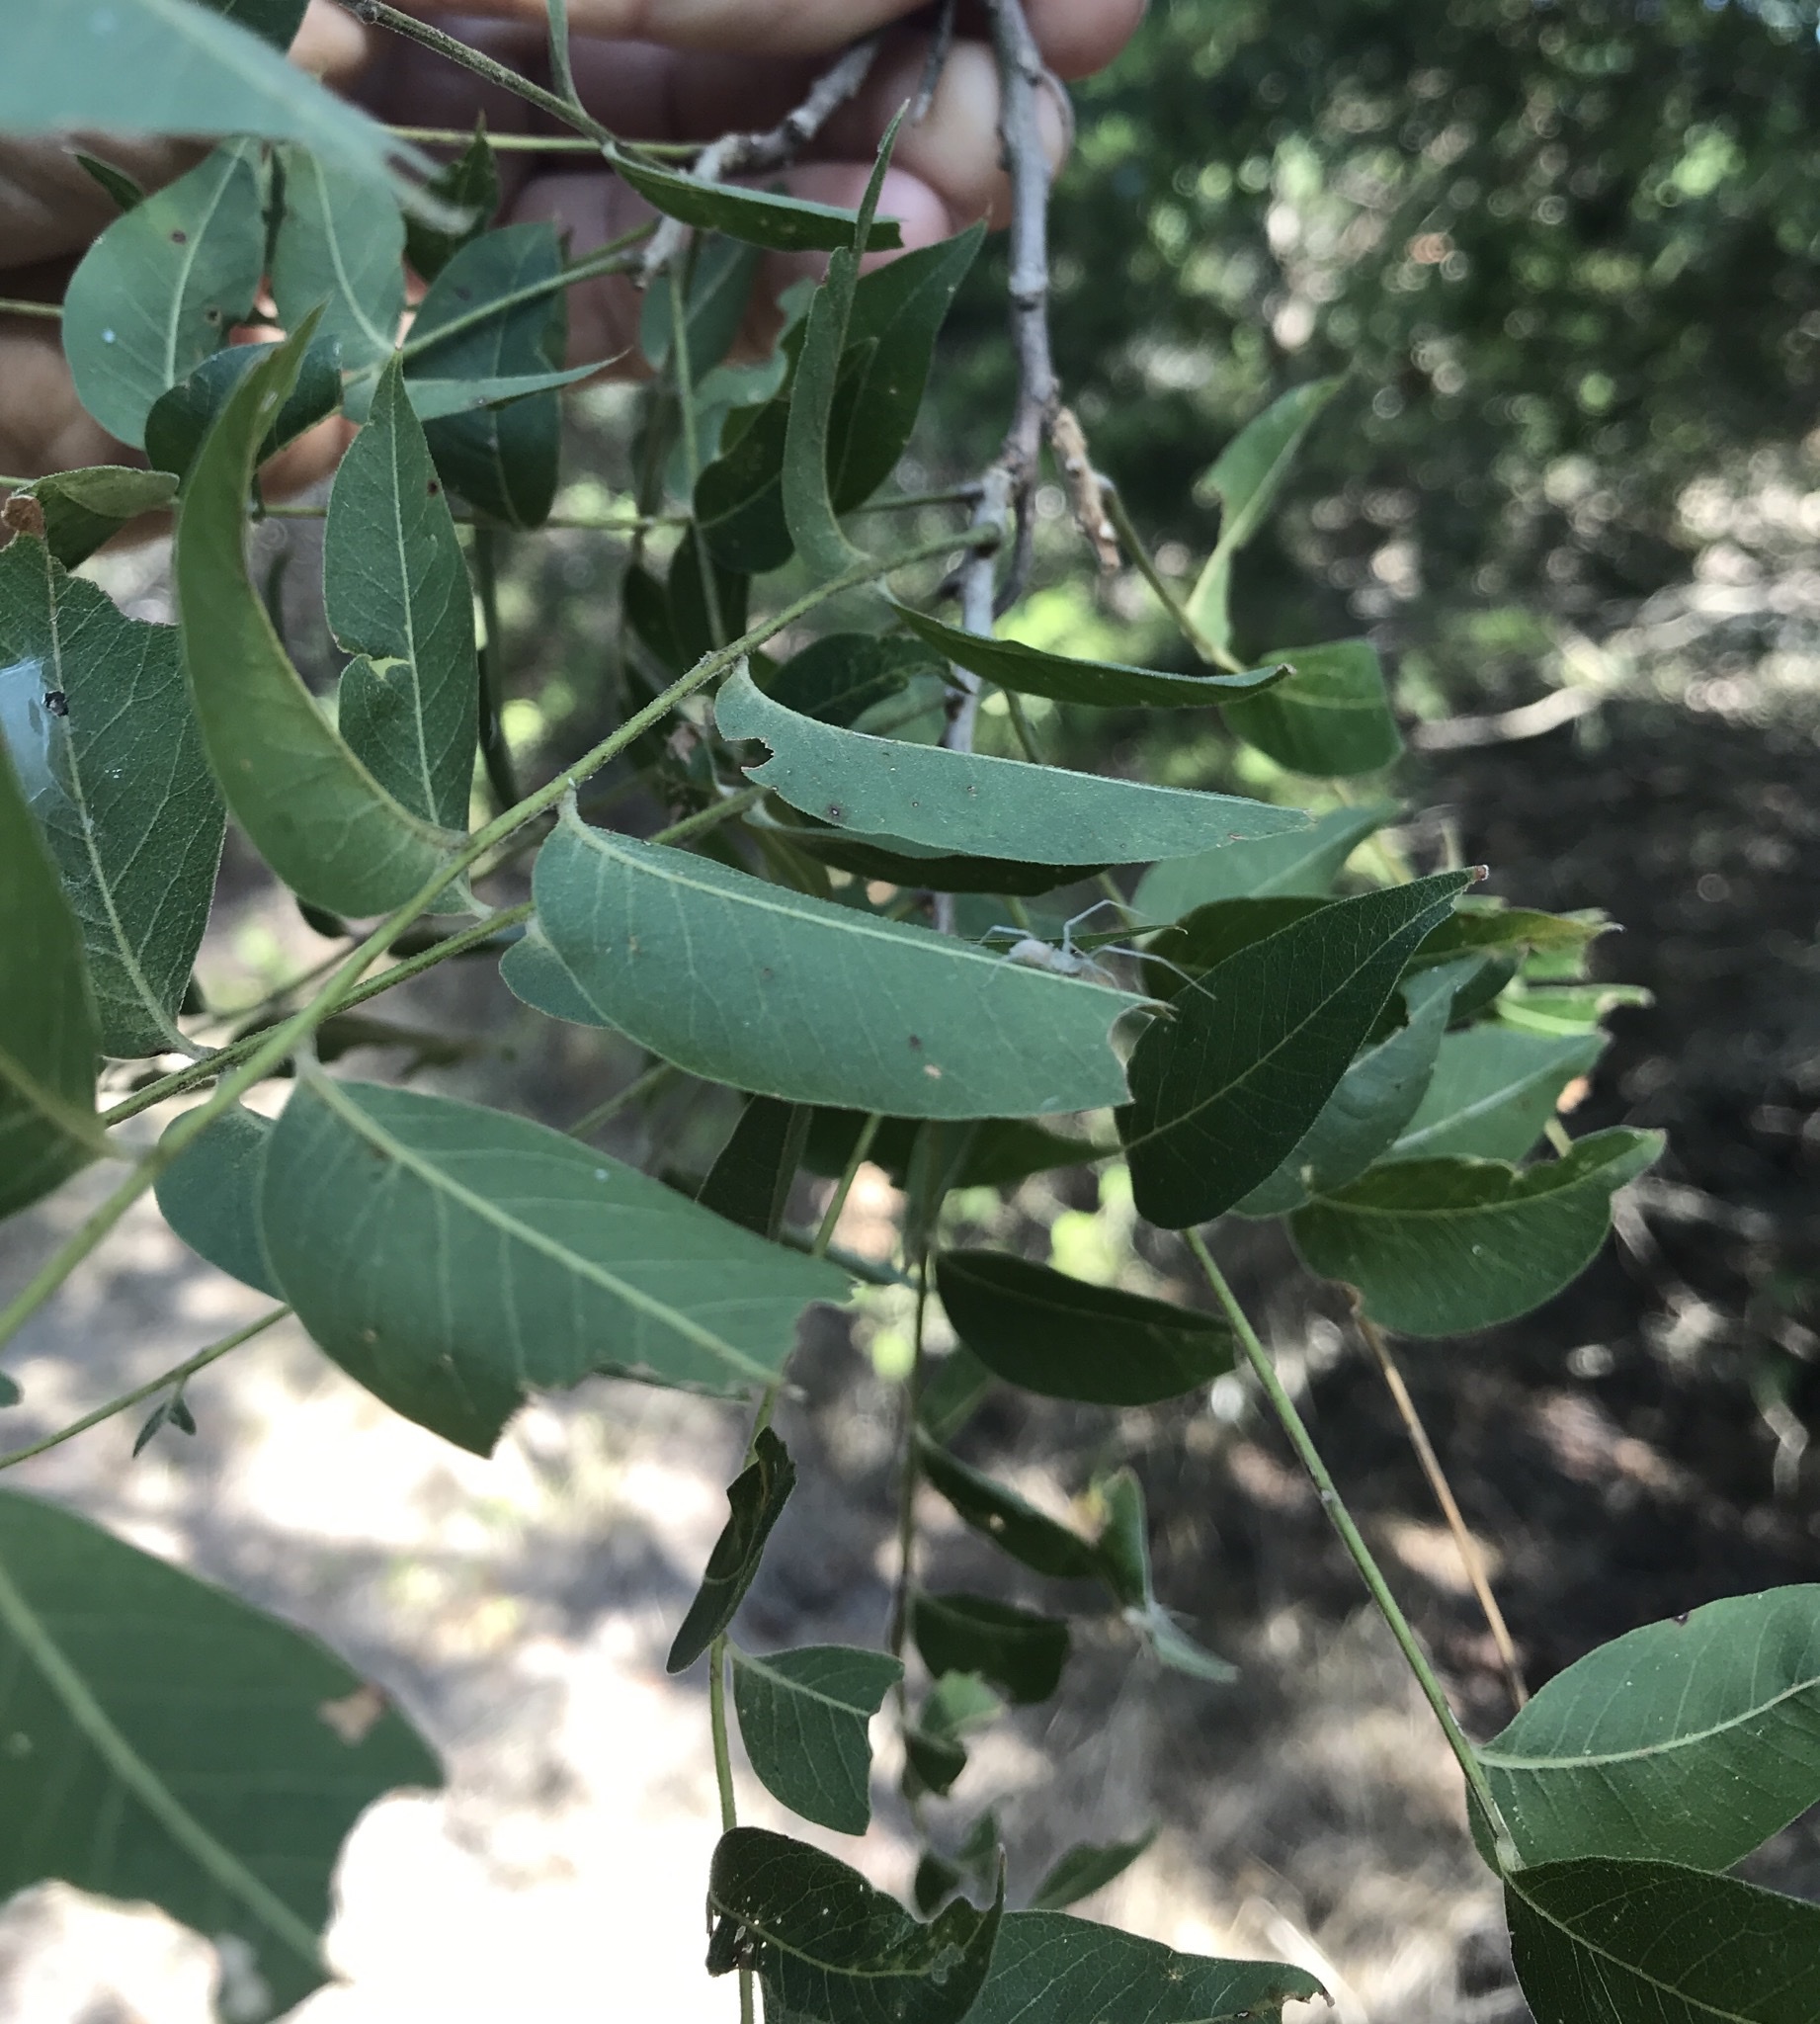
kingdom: Plantae
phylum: Tracheophyta
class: Magnoliopsida
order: Sapindales
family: Sapindaceae
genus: Sapindus
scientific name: Sapindus drummondii
